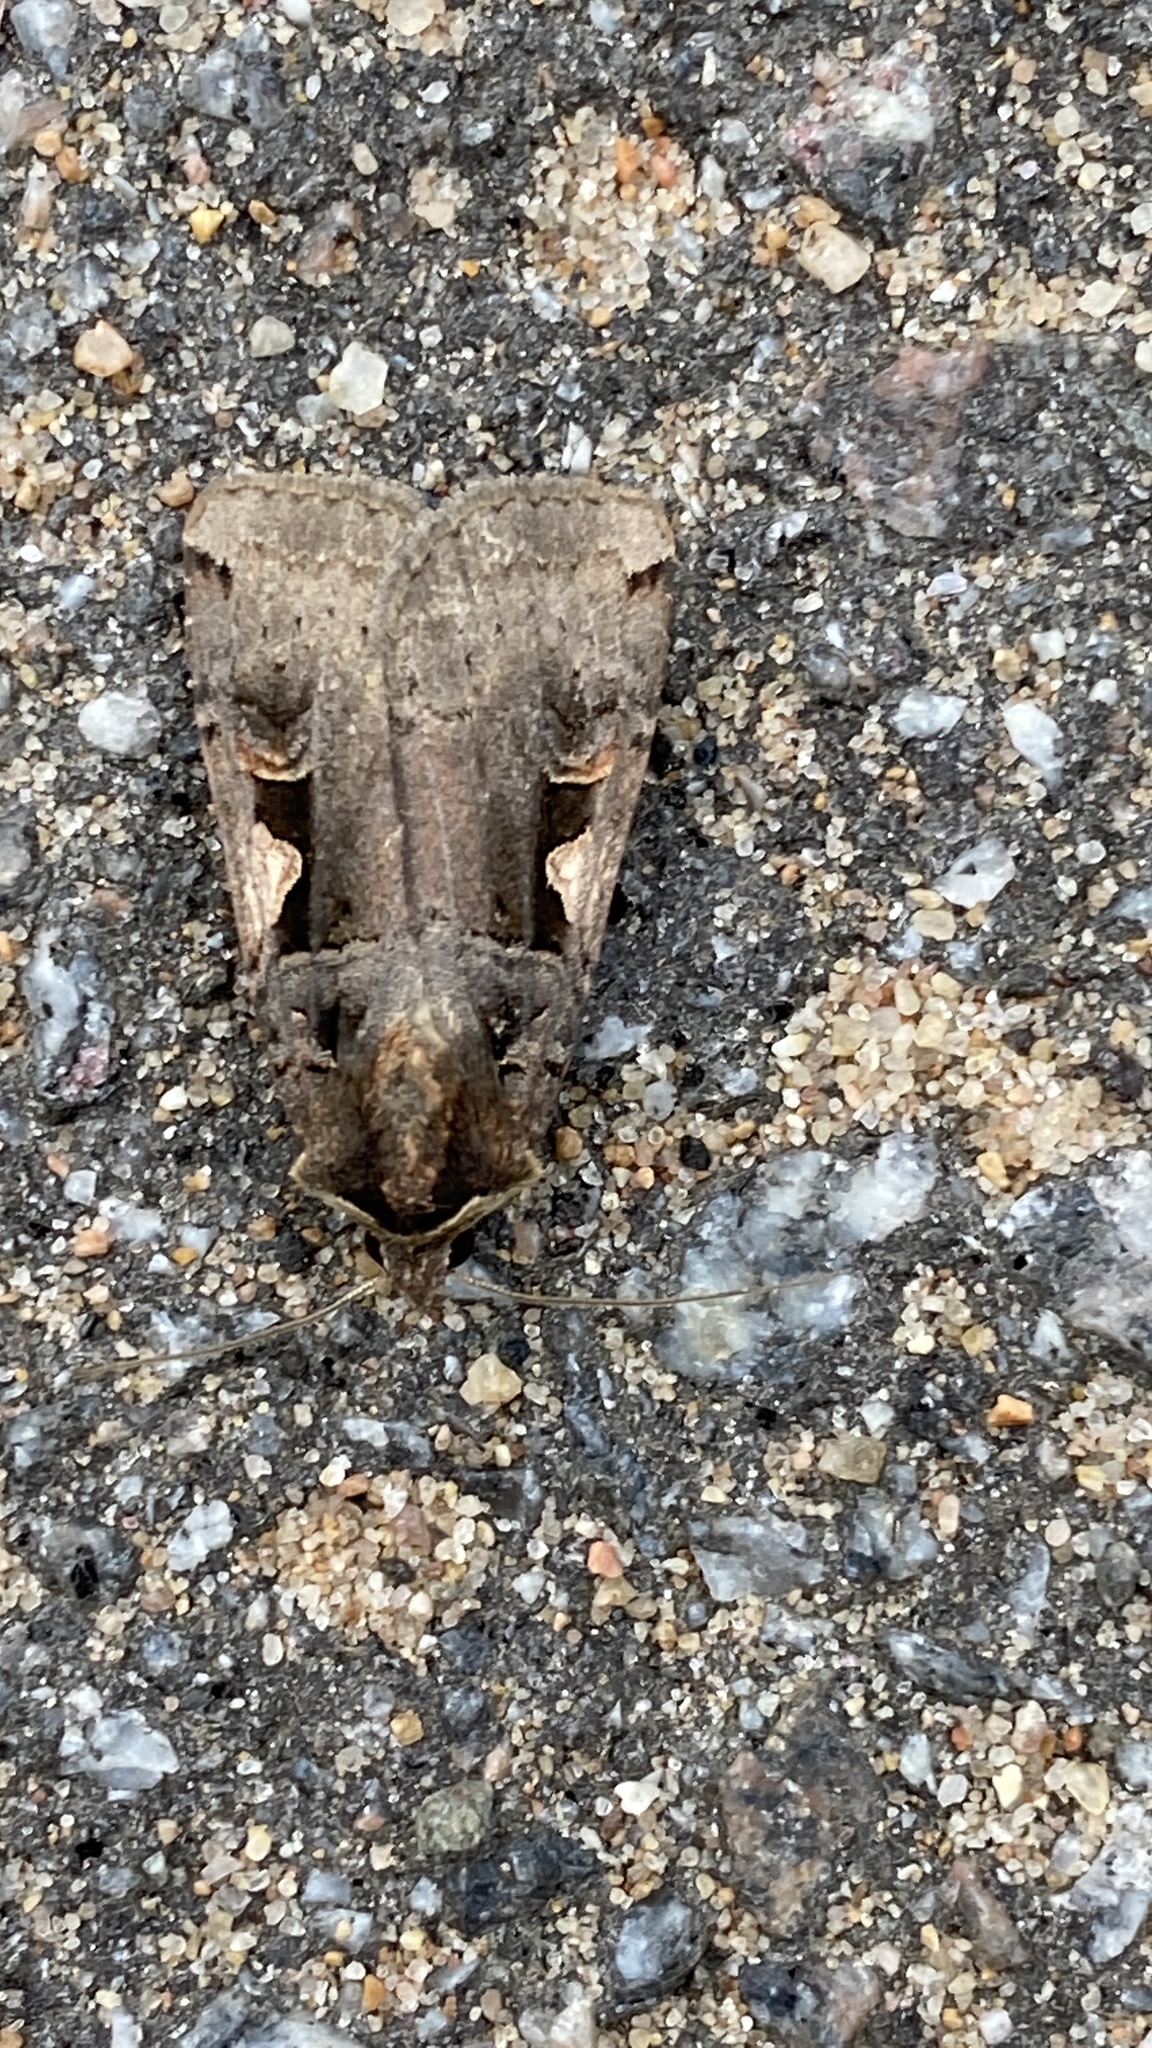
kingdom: Animalia
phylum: Arthropoda
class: Insecta
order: Lepidoptera
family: Noctuidae
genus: Xestia
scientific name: Xestia c-nigrum
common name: Setaceous hebrew character
